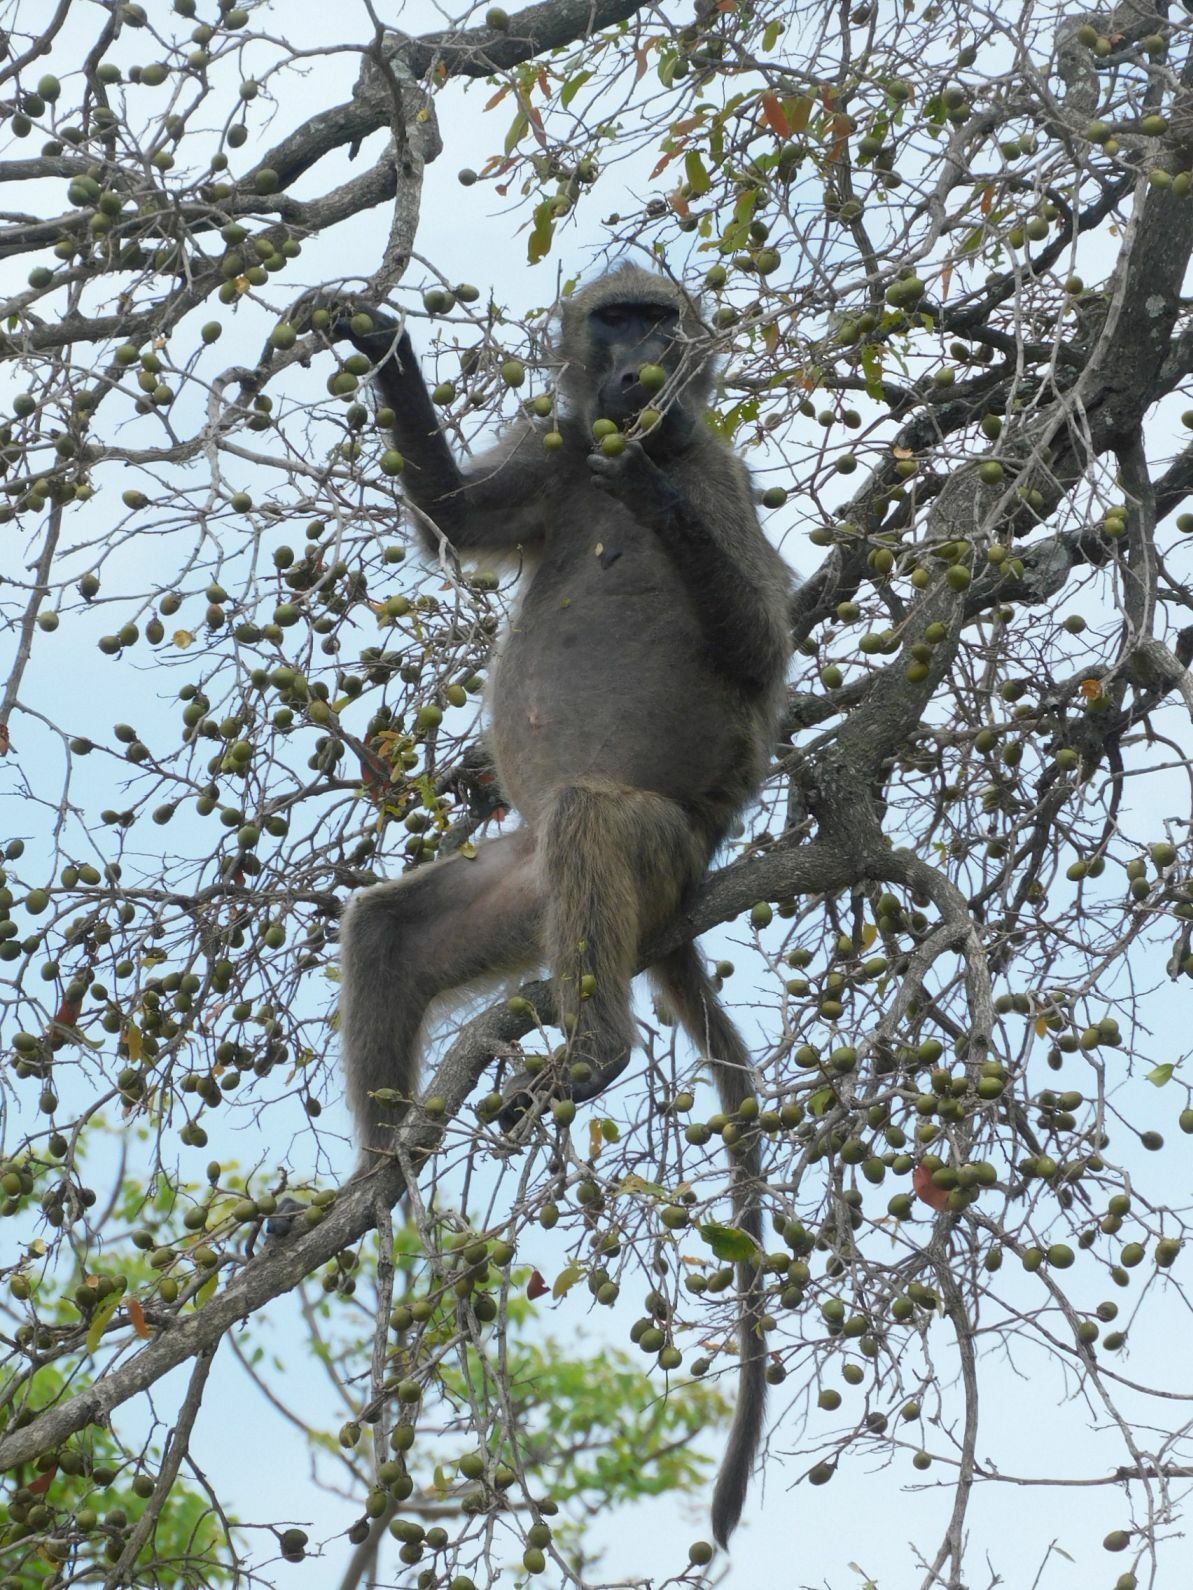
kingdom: Animalia
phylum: Chordata
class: Mammalia
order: Primates
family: Cercopithecidae
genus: Papio
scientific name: Papio ursinus
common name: Chacma baboon
